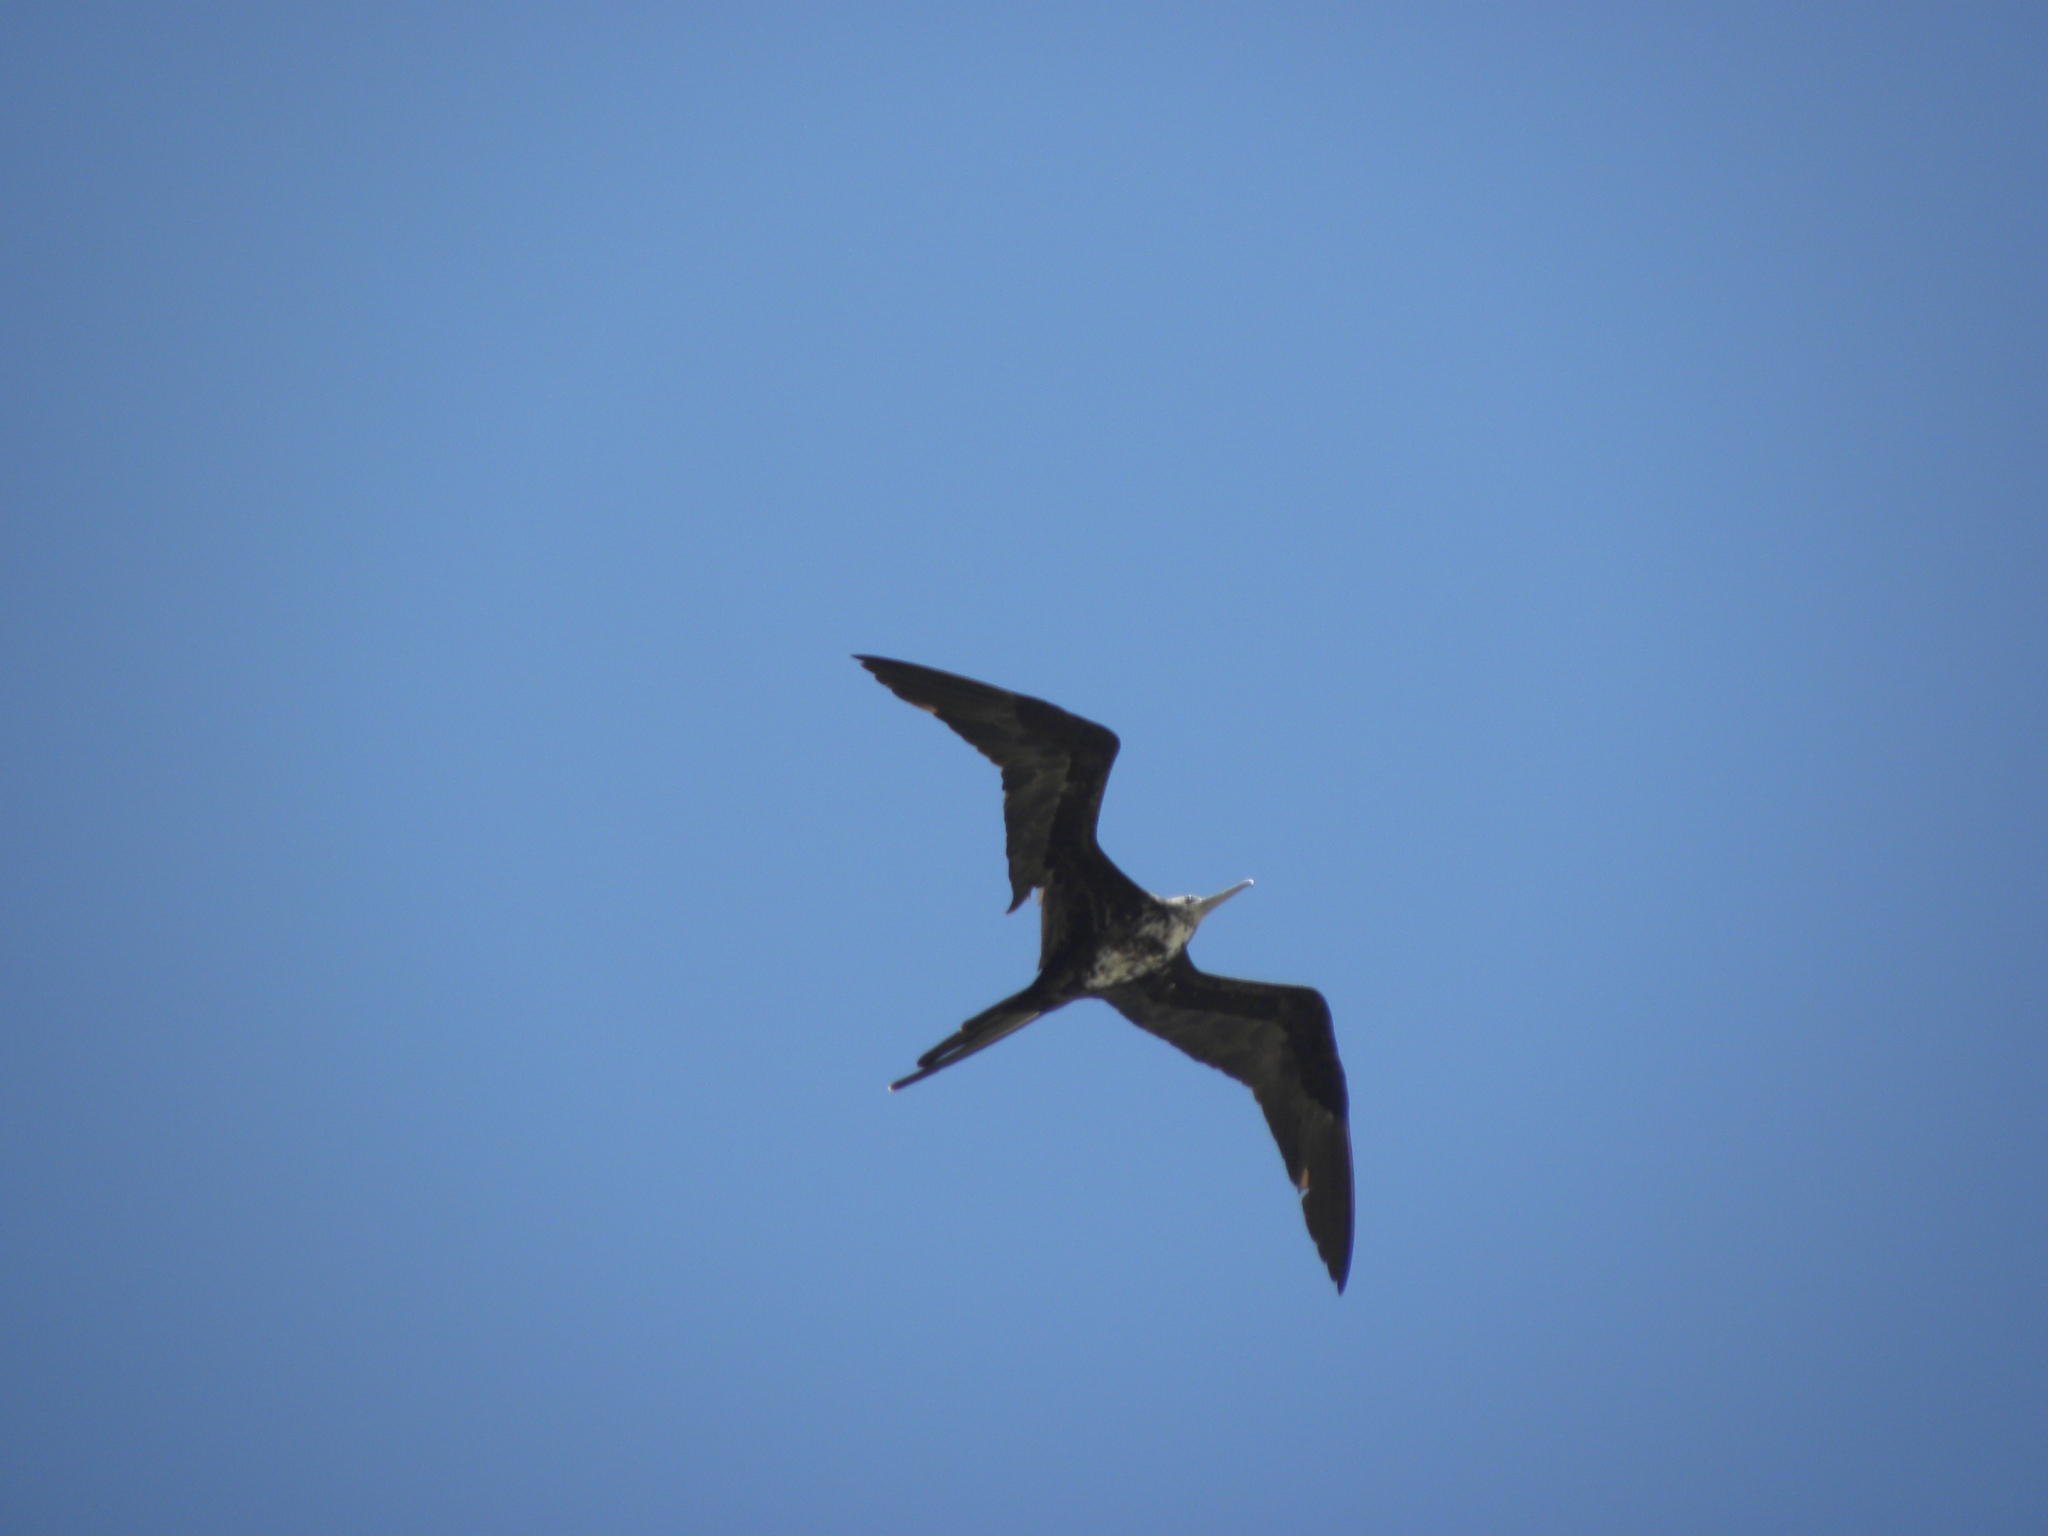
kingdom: Animalia
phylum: Chordata
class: Aves
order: Suliformes
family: Fregatidae
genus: Fregata
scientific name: Fregata magnificens
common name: Magnificent frigatebird
